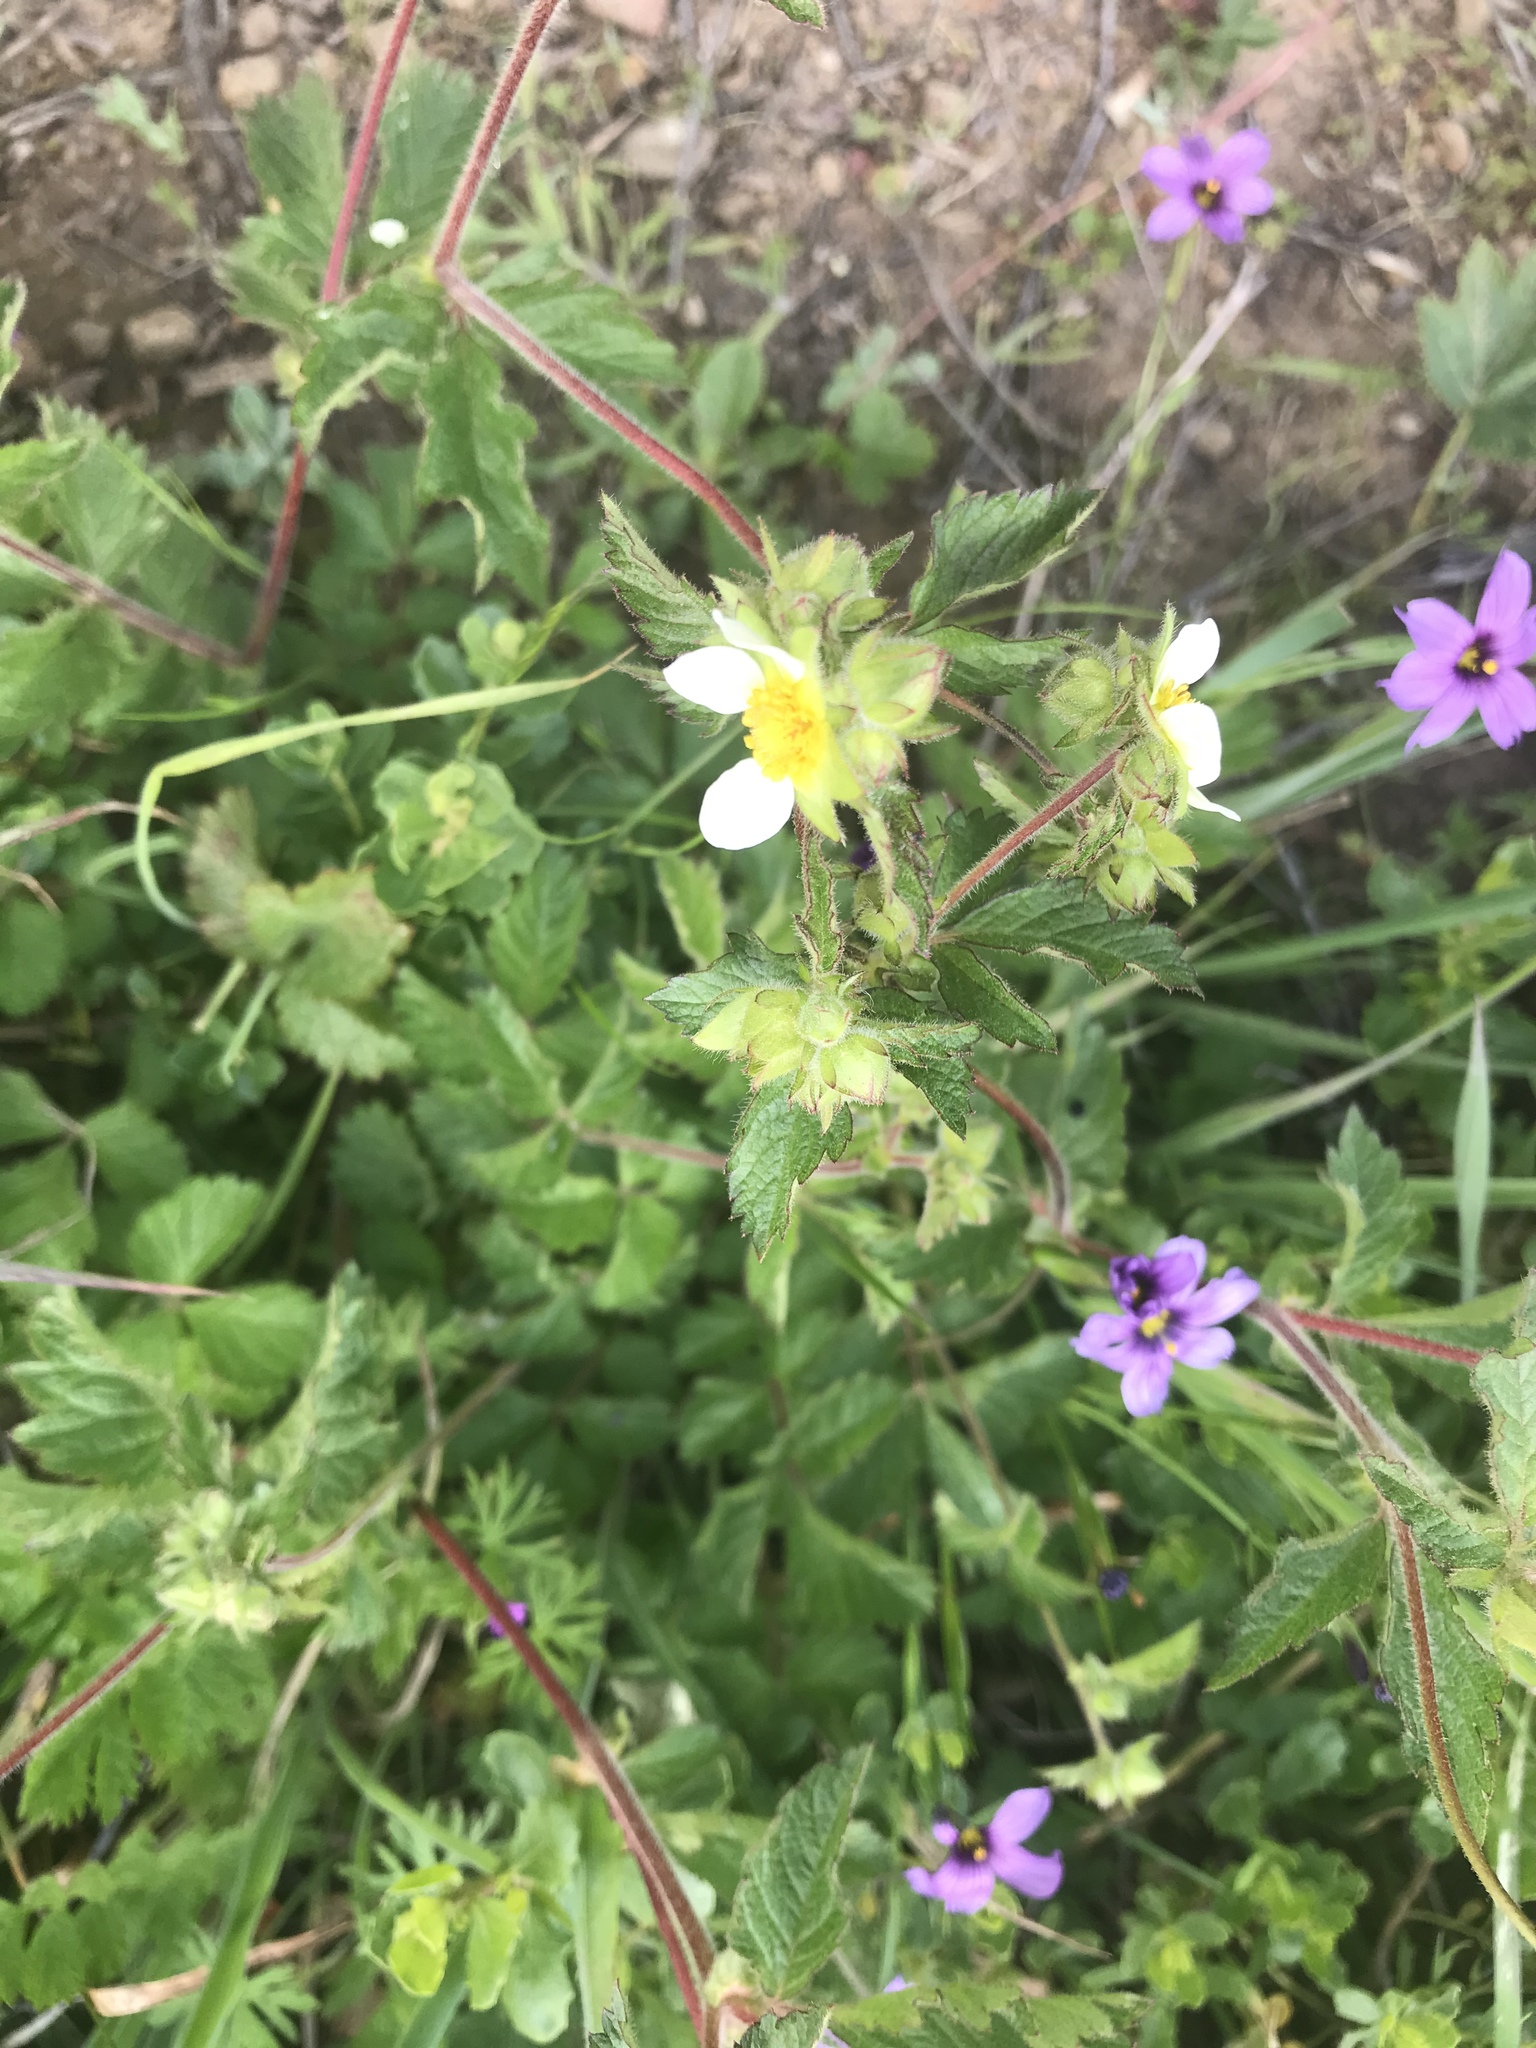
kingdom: Plantae
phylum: Tracheophyta
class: Magnoliopsida
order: Rosales
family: Rosaceae
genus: Drymocallis
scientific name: Drymocallis glandulosa
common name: Sticky cinquefoil
